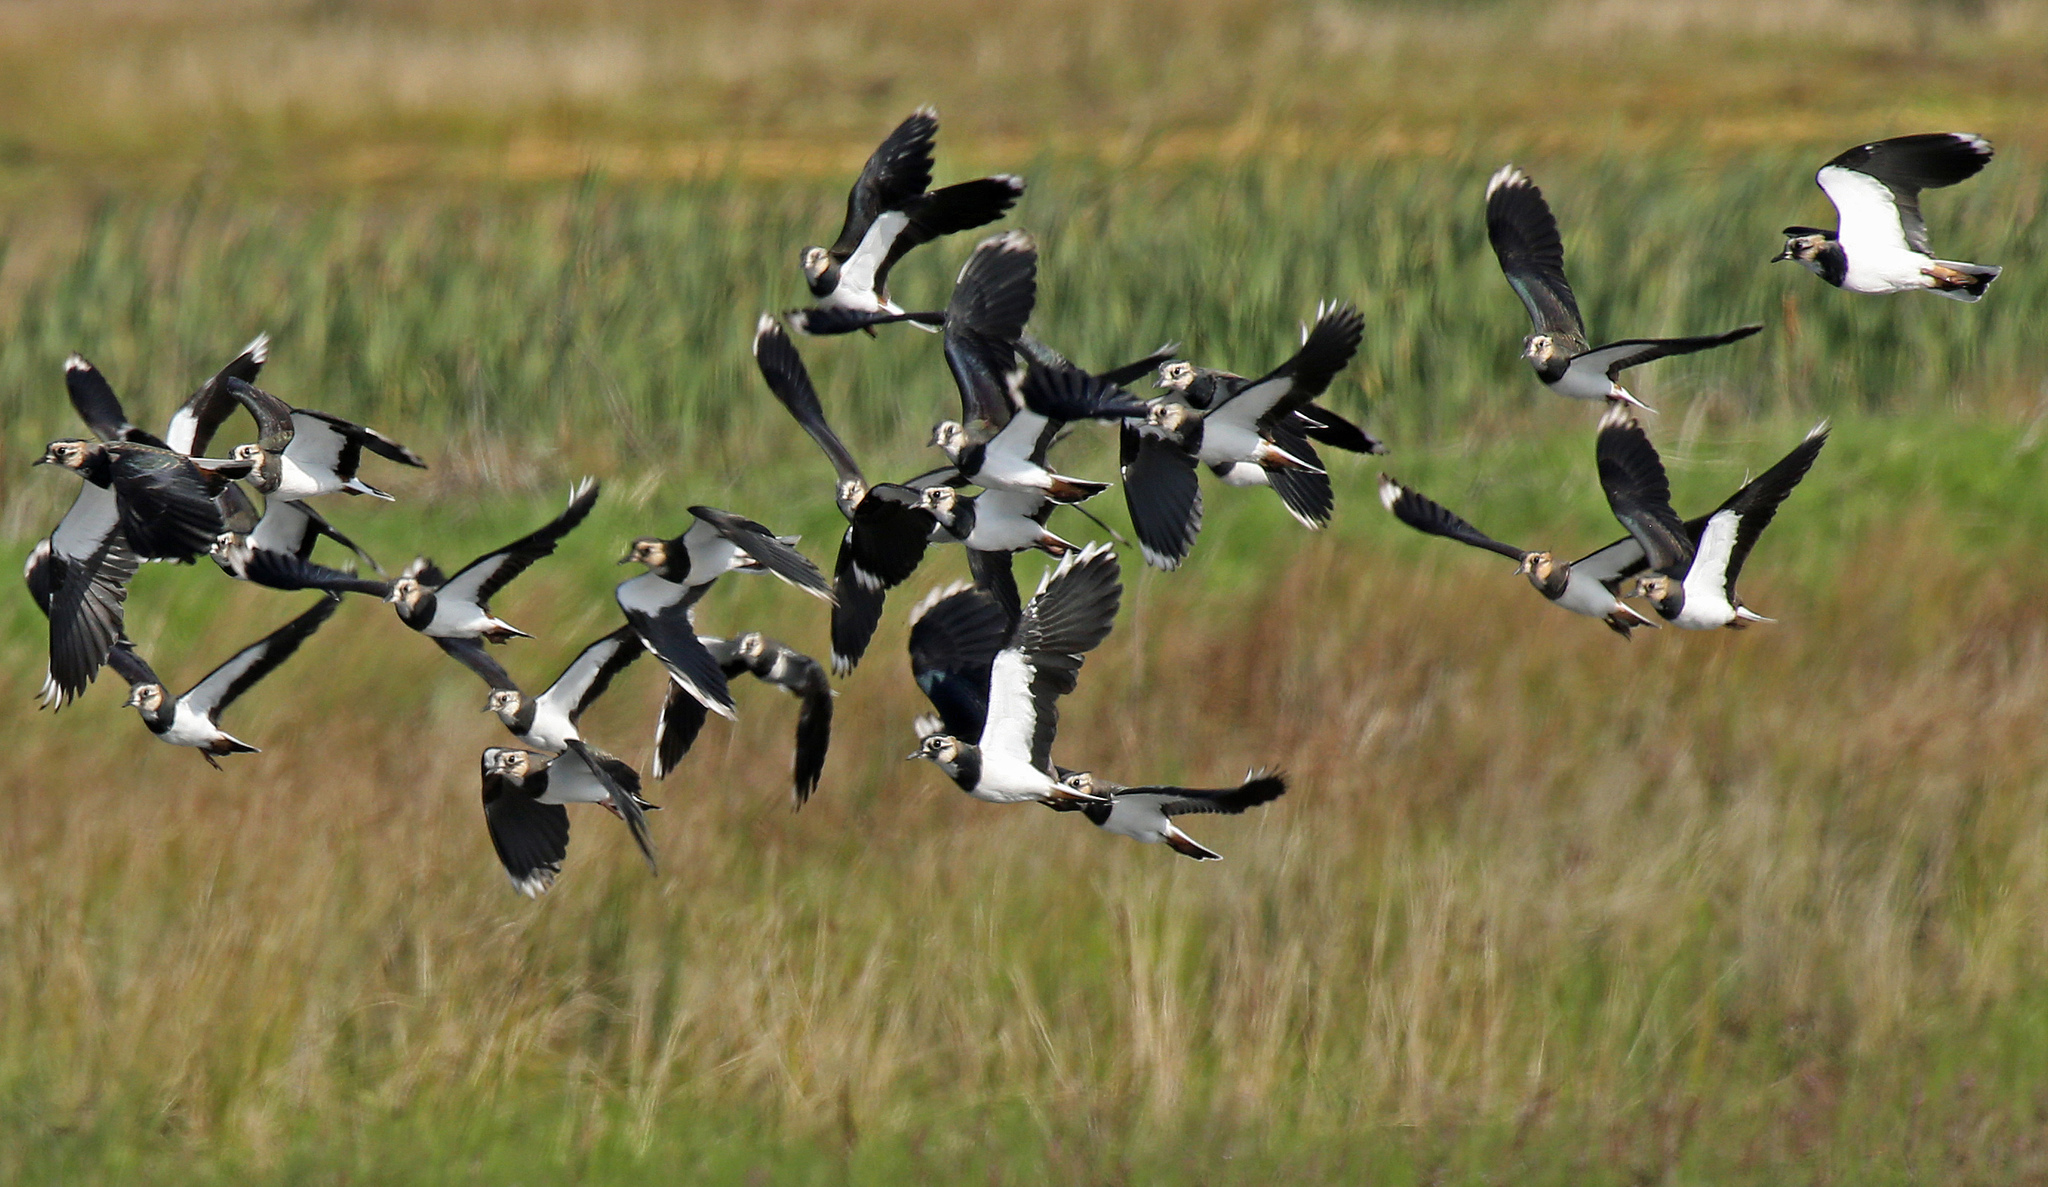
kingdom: Animalia
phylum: Chordata
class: Aves
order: Charadriiformes
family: Charadriidae
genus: Vanellus
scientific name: Vanellus vanellus
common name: Northern lapwing
